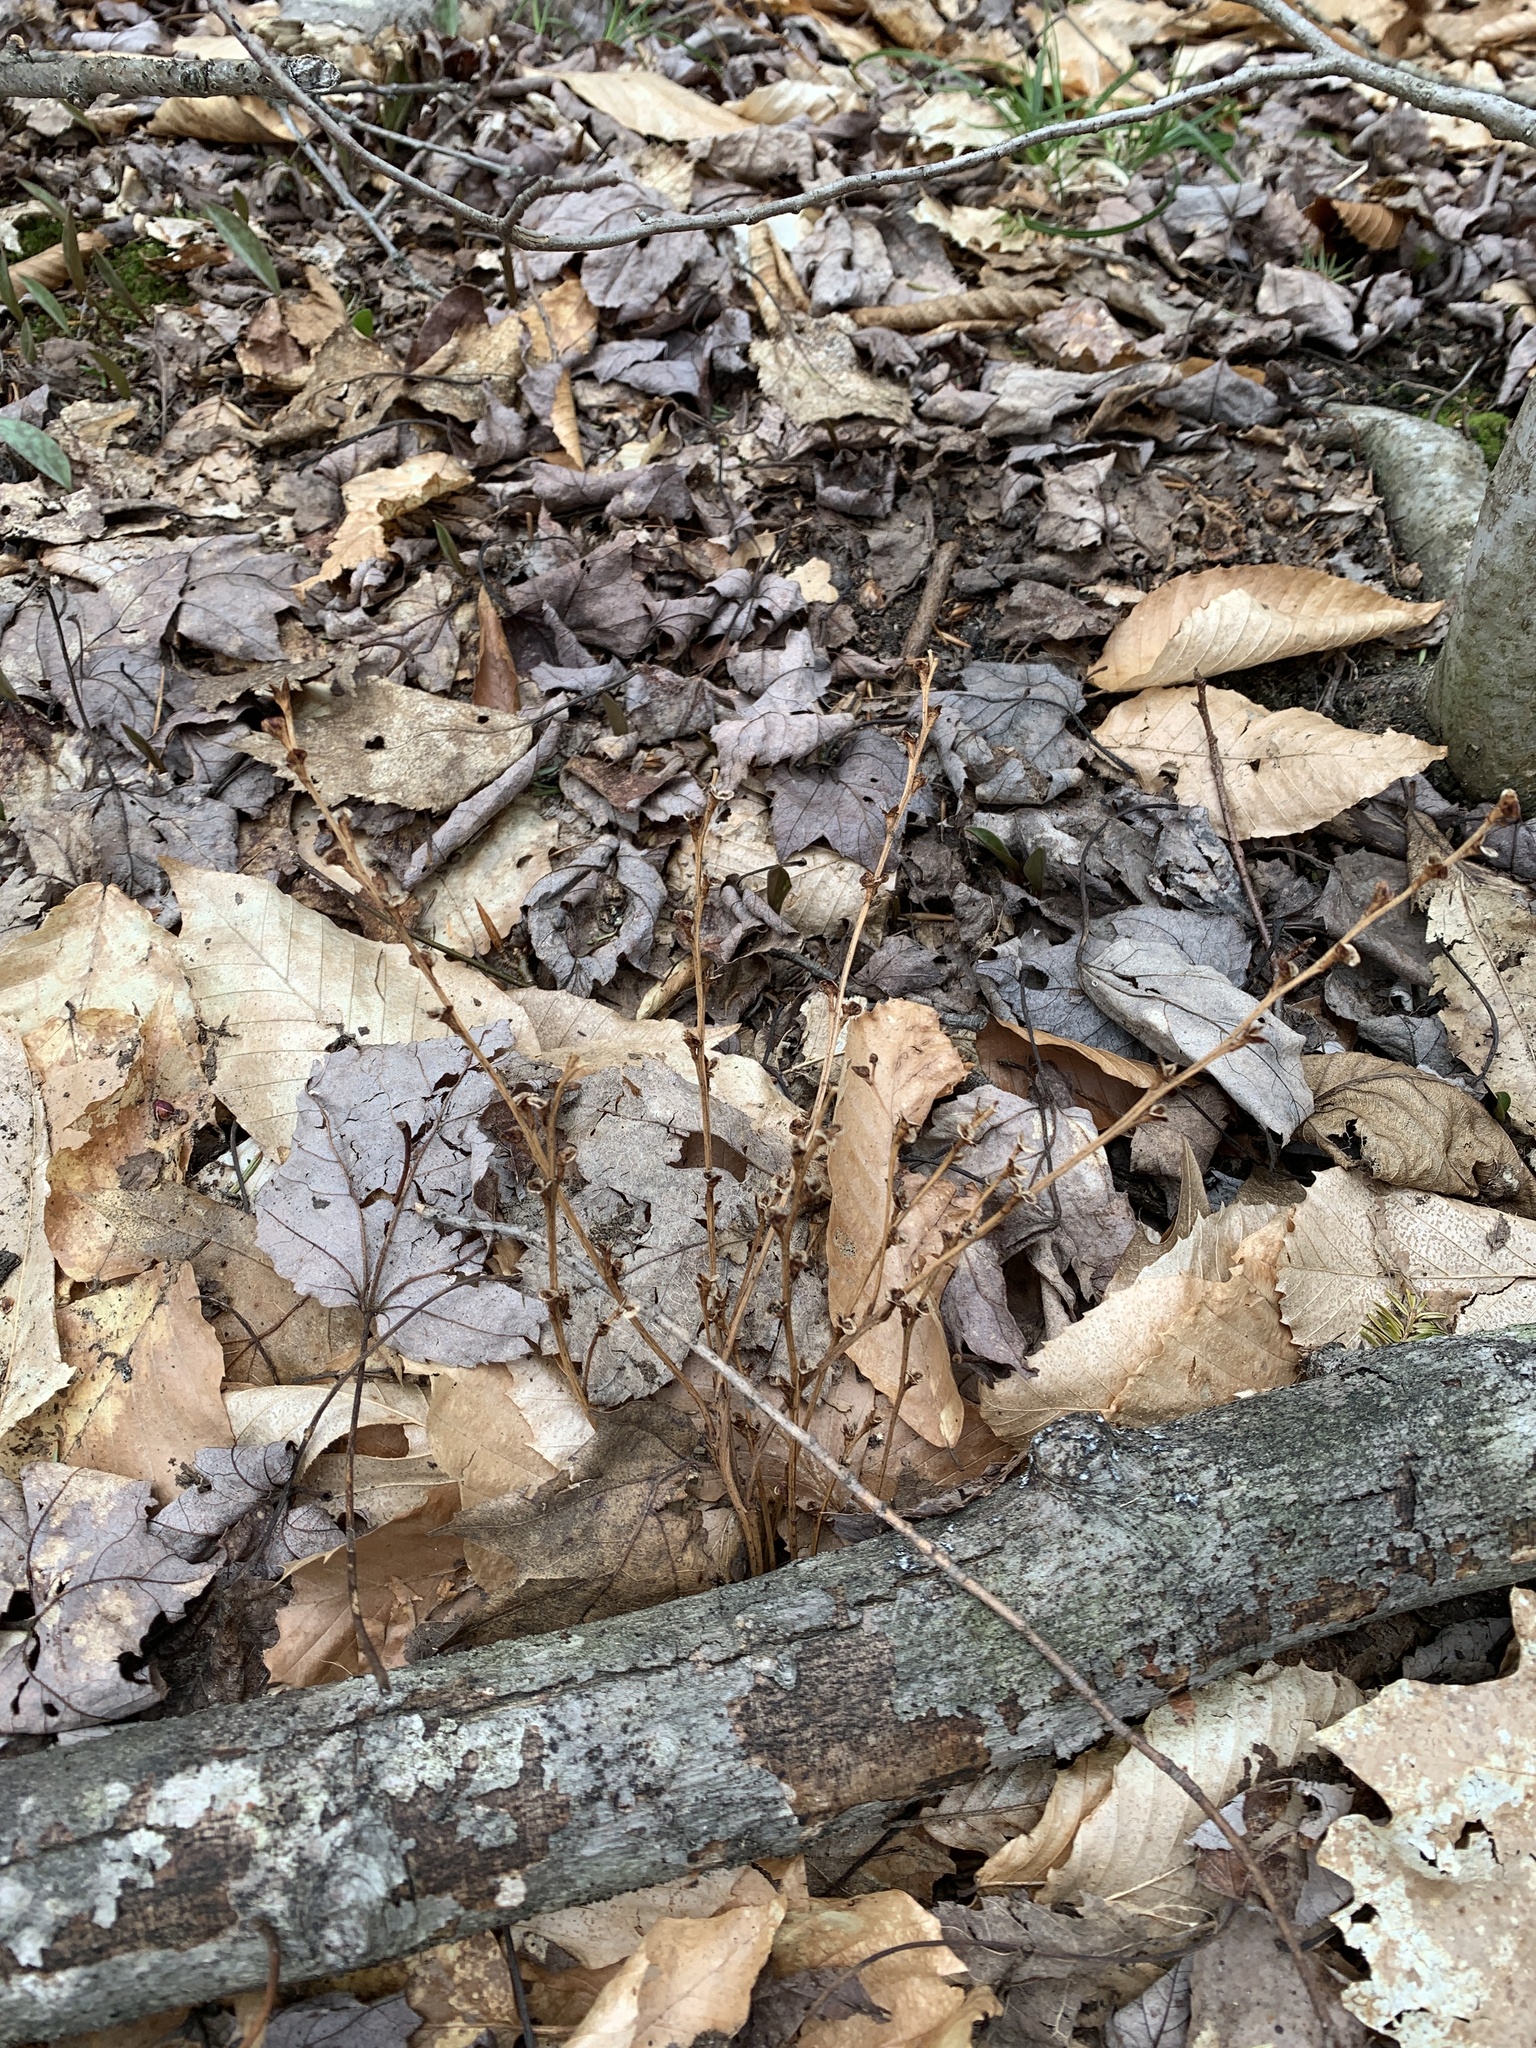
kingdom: Plantae
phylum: Tracheophyta
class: Magnoliopsida
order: Lamiales
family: Orobanchaceae
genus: Epifagus
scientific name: Epifagus virginiana
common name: Beechdrops
